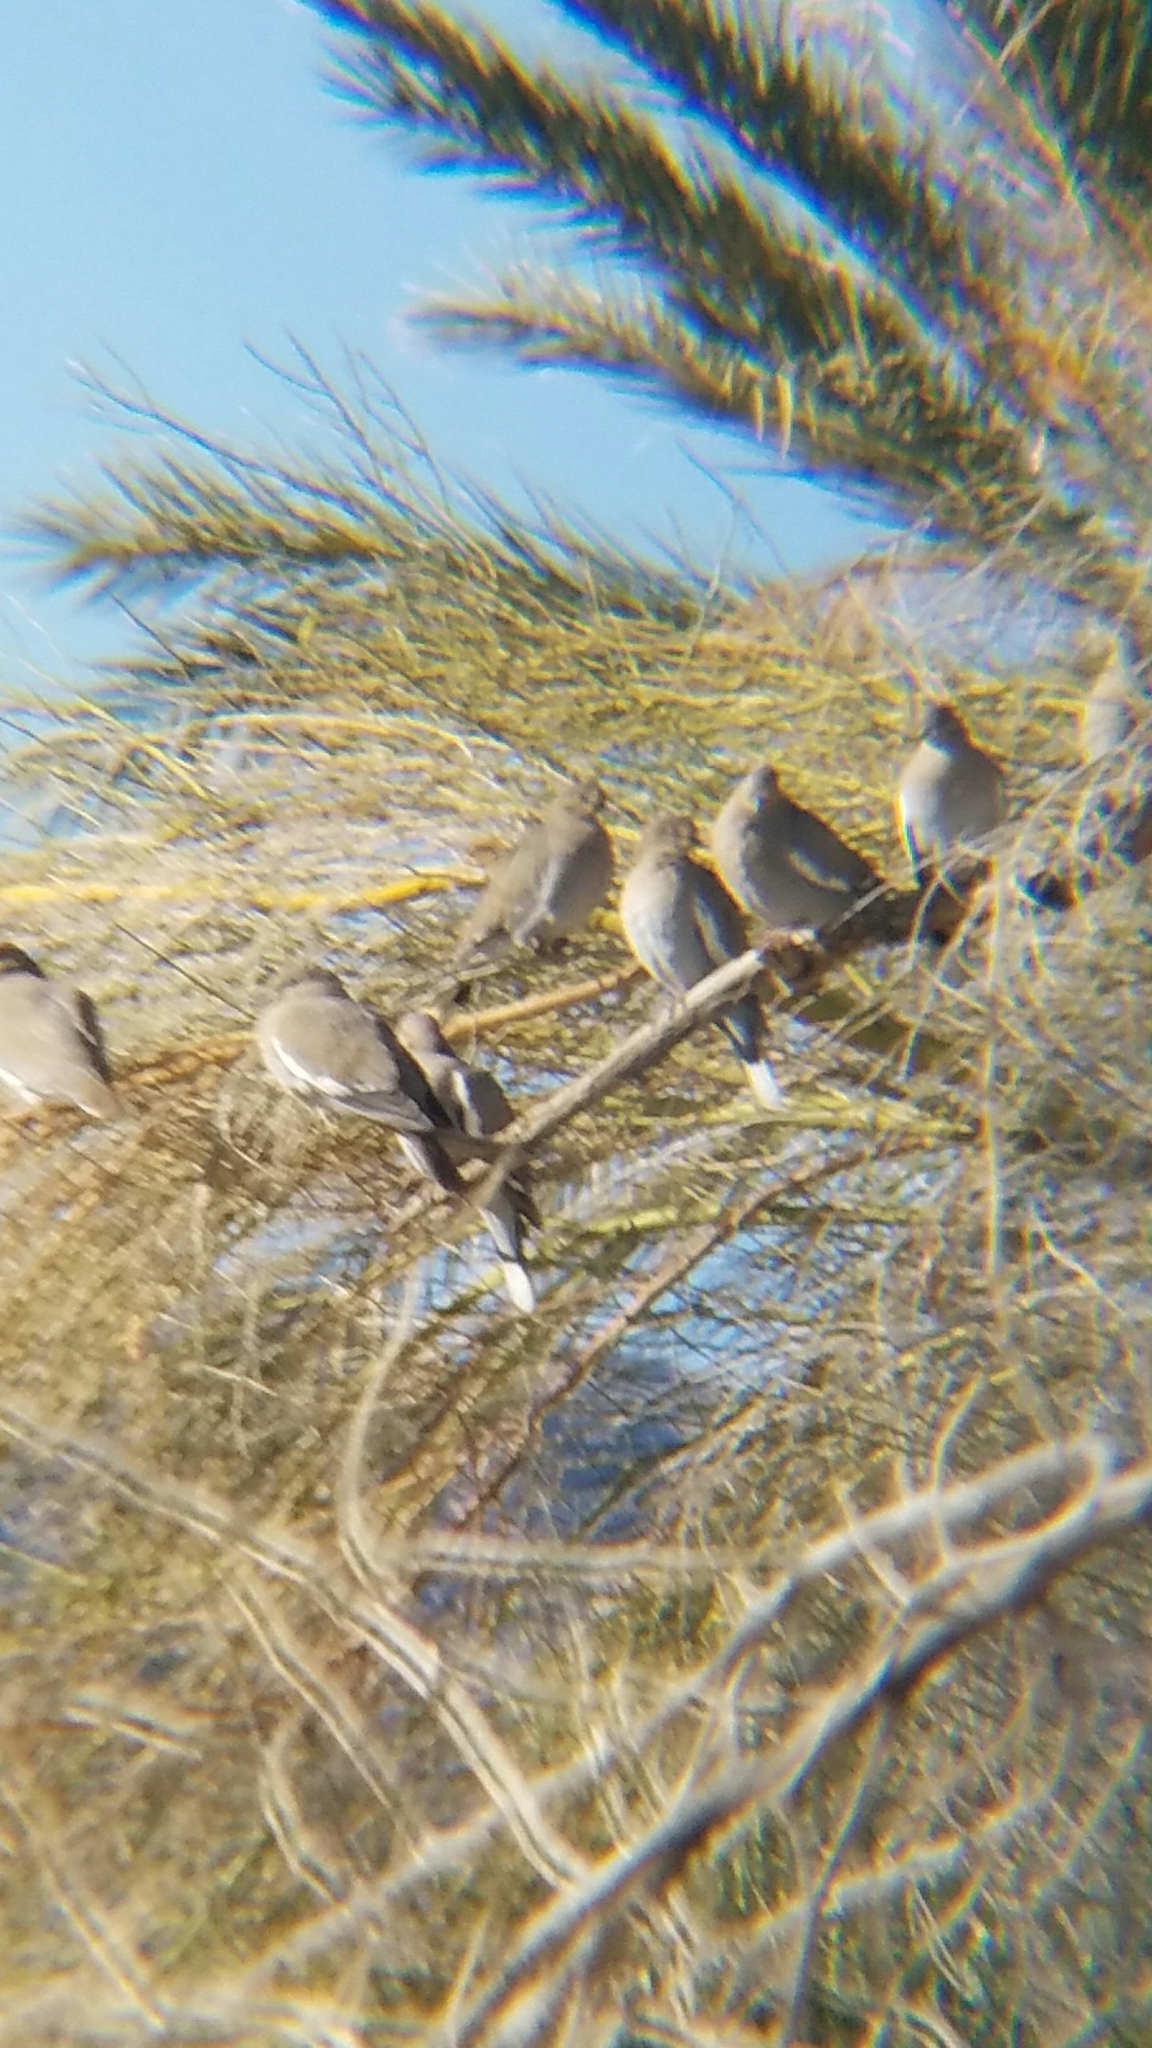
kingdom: Animalia
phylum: Chordata
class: Aves
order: Columbiformes
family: Columbidae
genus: Zenaida
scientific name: Zenaida asiatica
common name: White-winged dove
